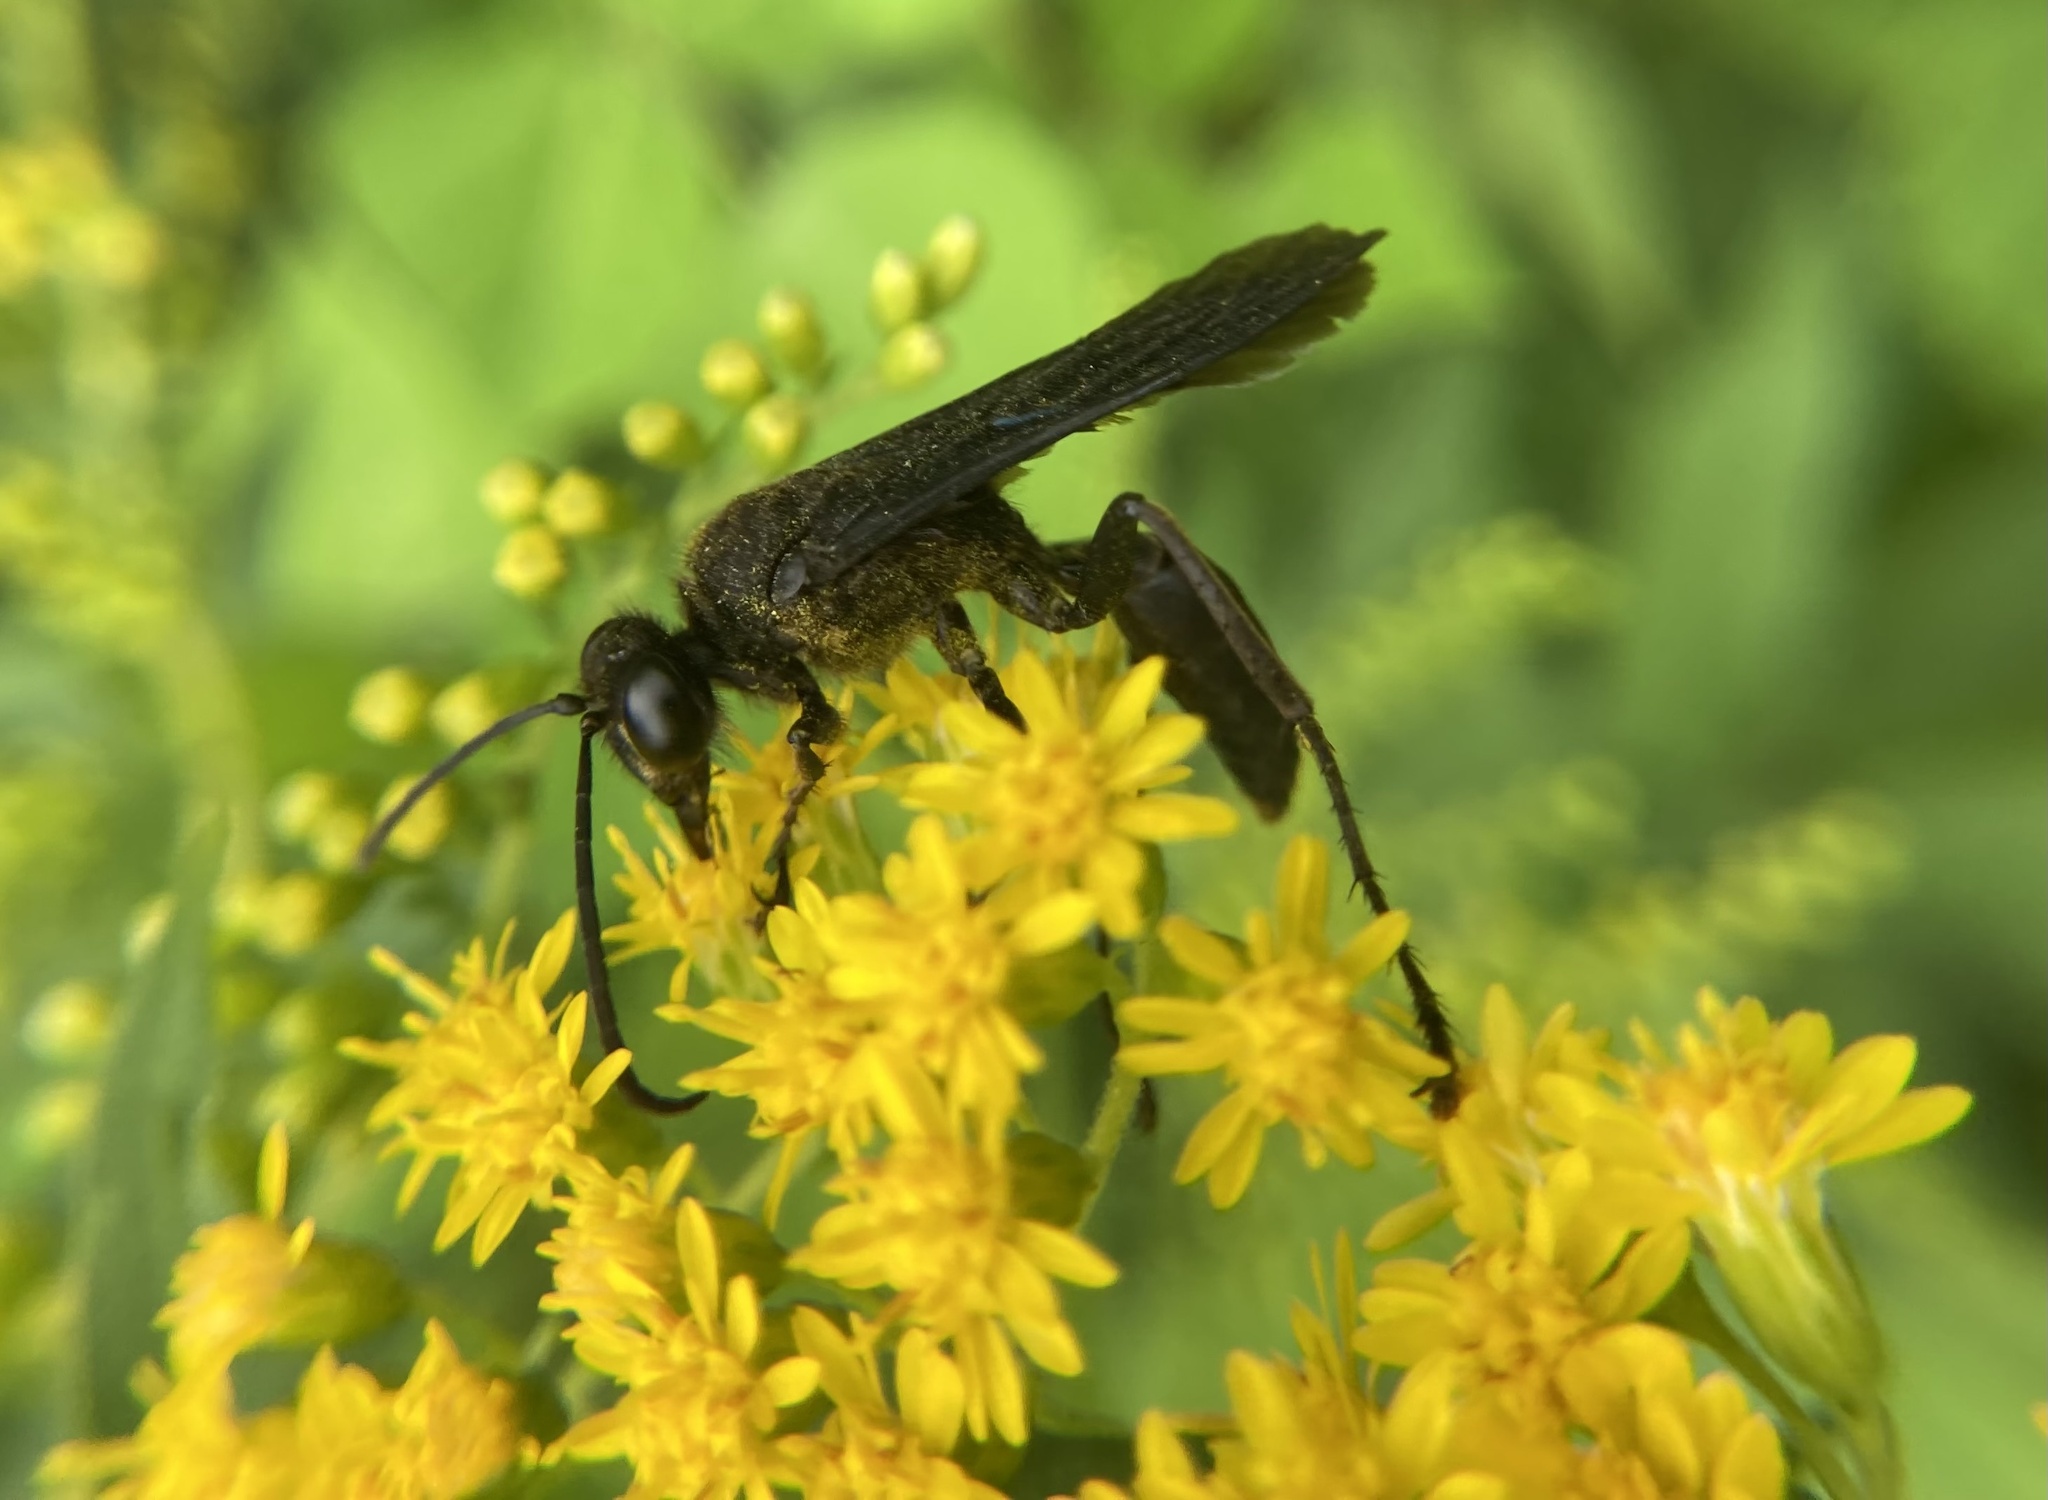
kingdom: Animalia
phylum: Arthropoda
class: Insecta
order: Hymenoptera
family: Sphecidae
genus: Sphex
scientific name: Sphex pensylvanicus
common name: Great black digger wasp
